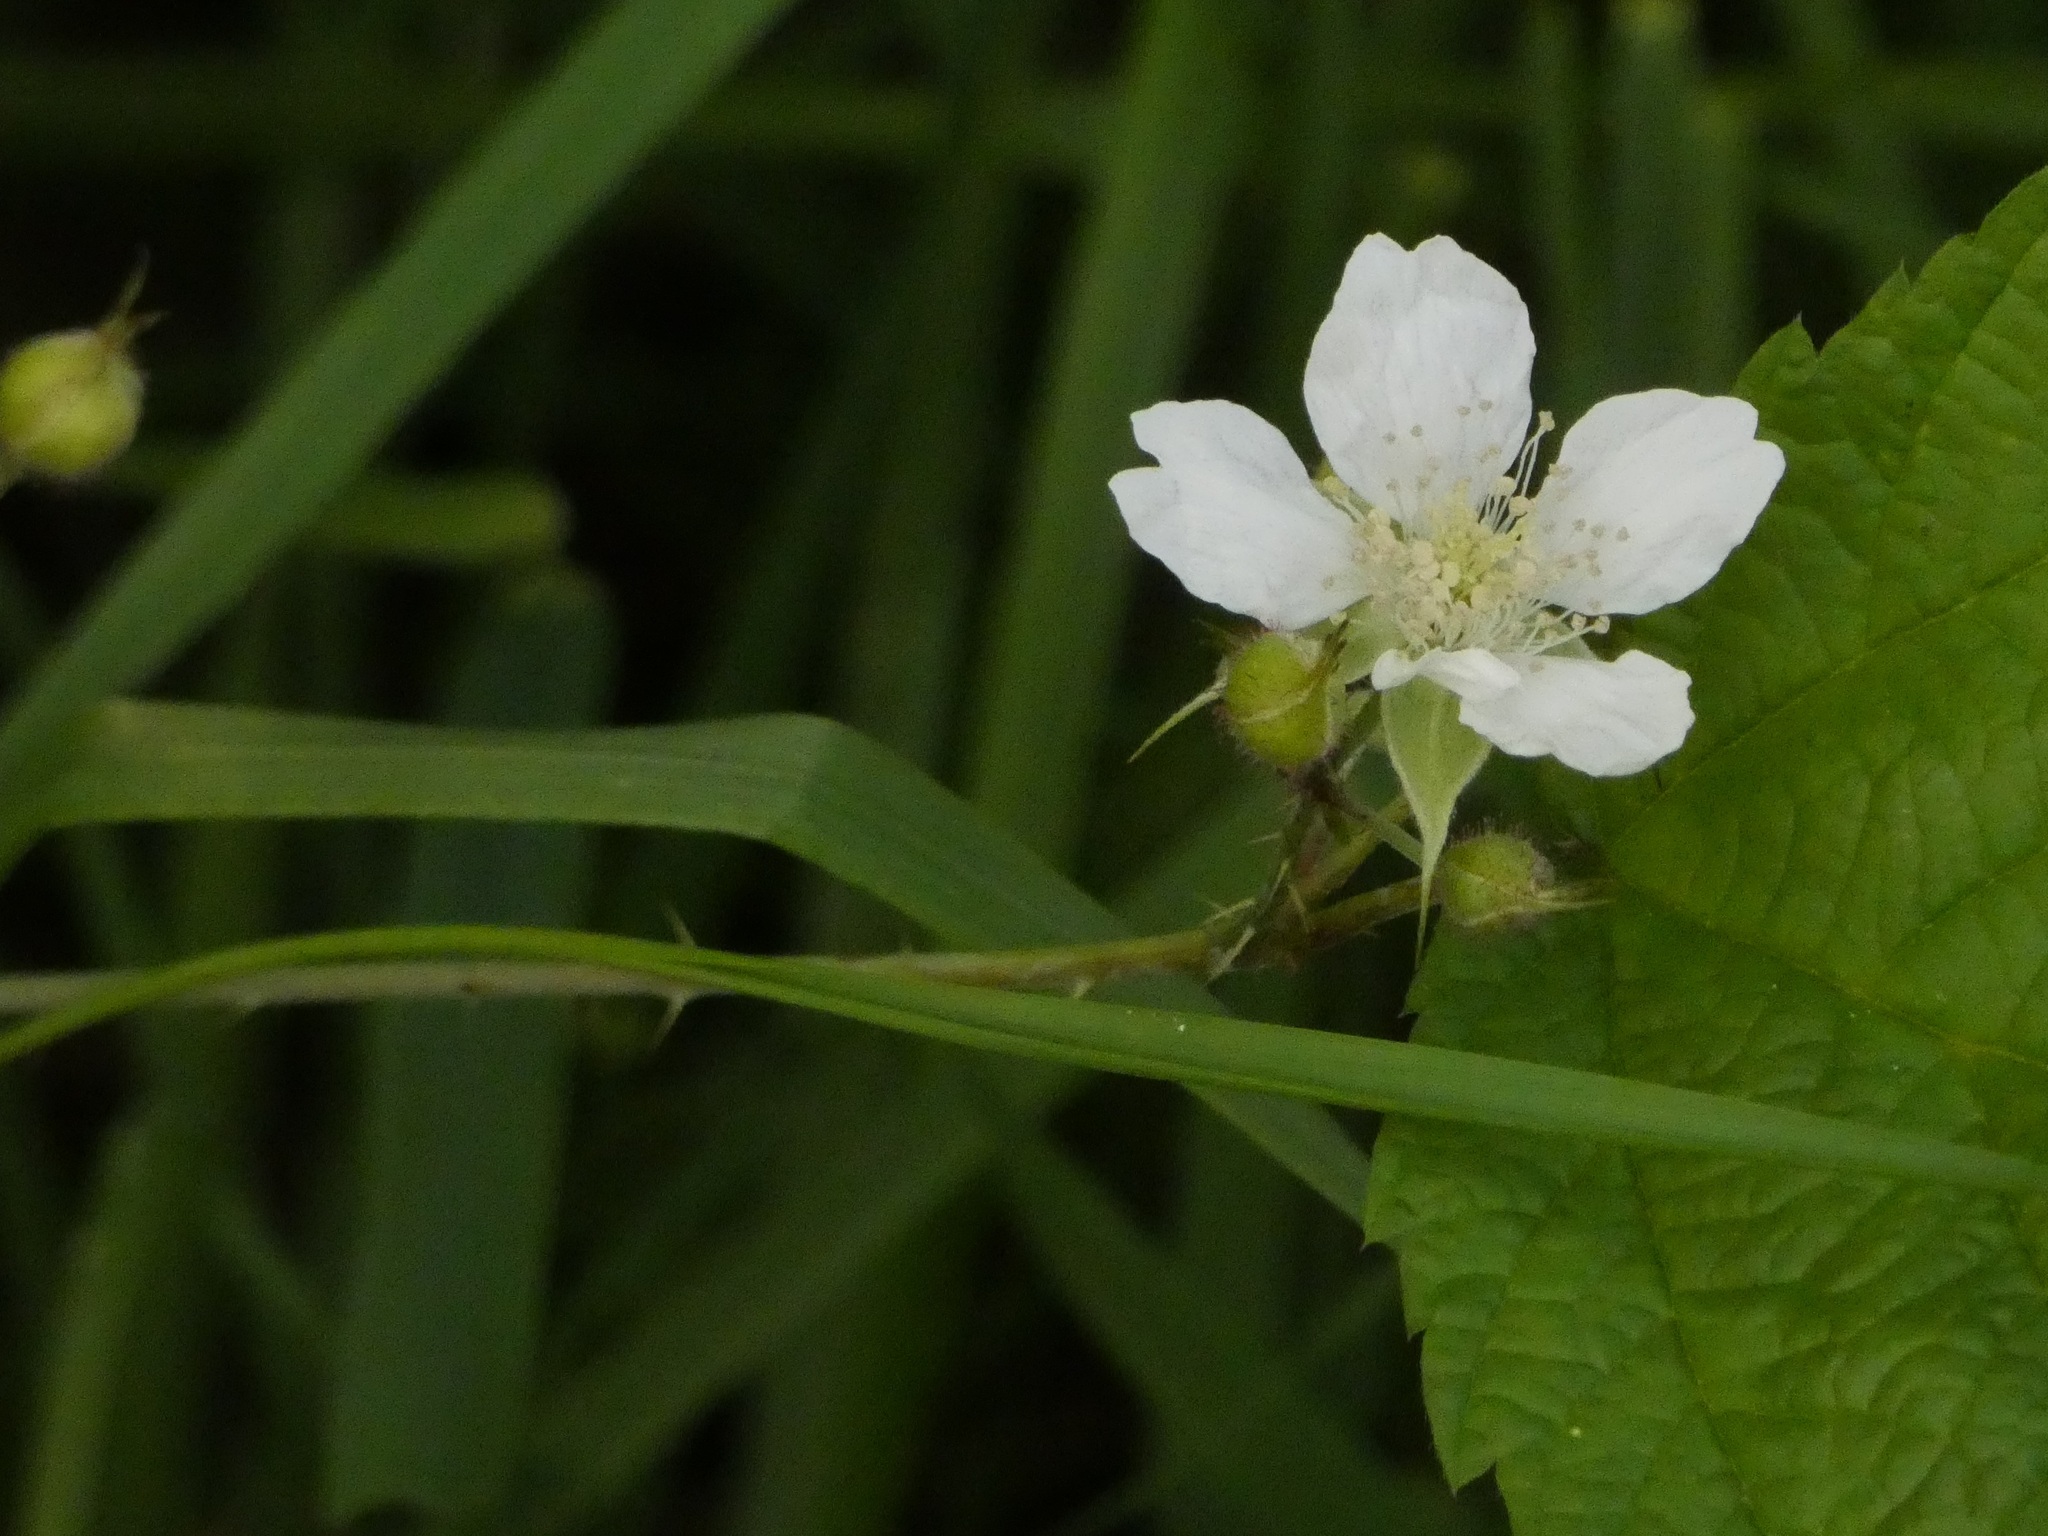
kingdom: Plantae
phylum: Tracheophyta
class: Magnoliopsida
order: Rosales
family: Rosaceae
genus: Rubus
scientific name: Rubus caesius
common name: Dewberry
